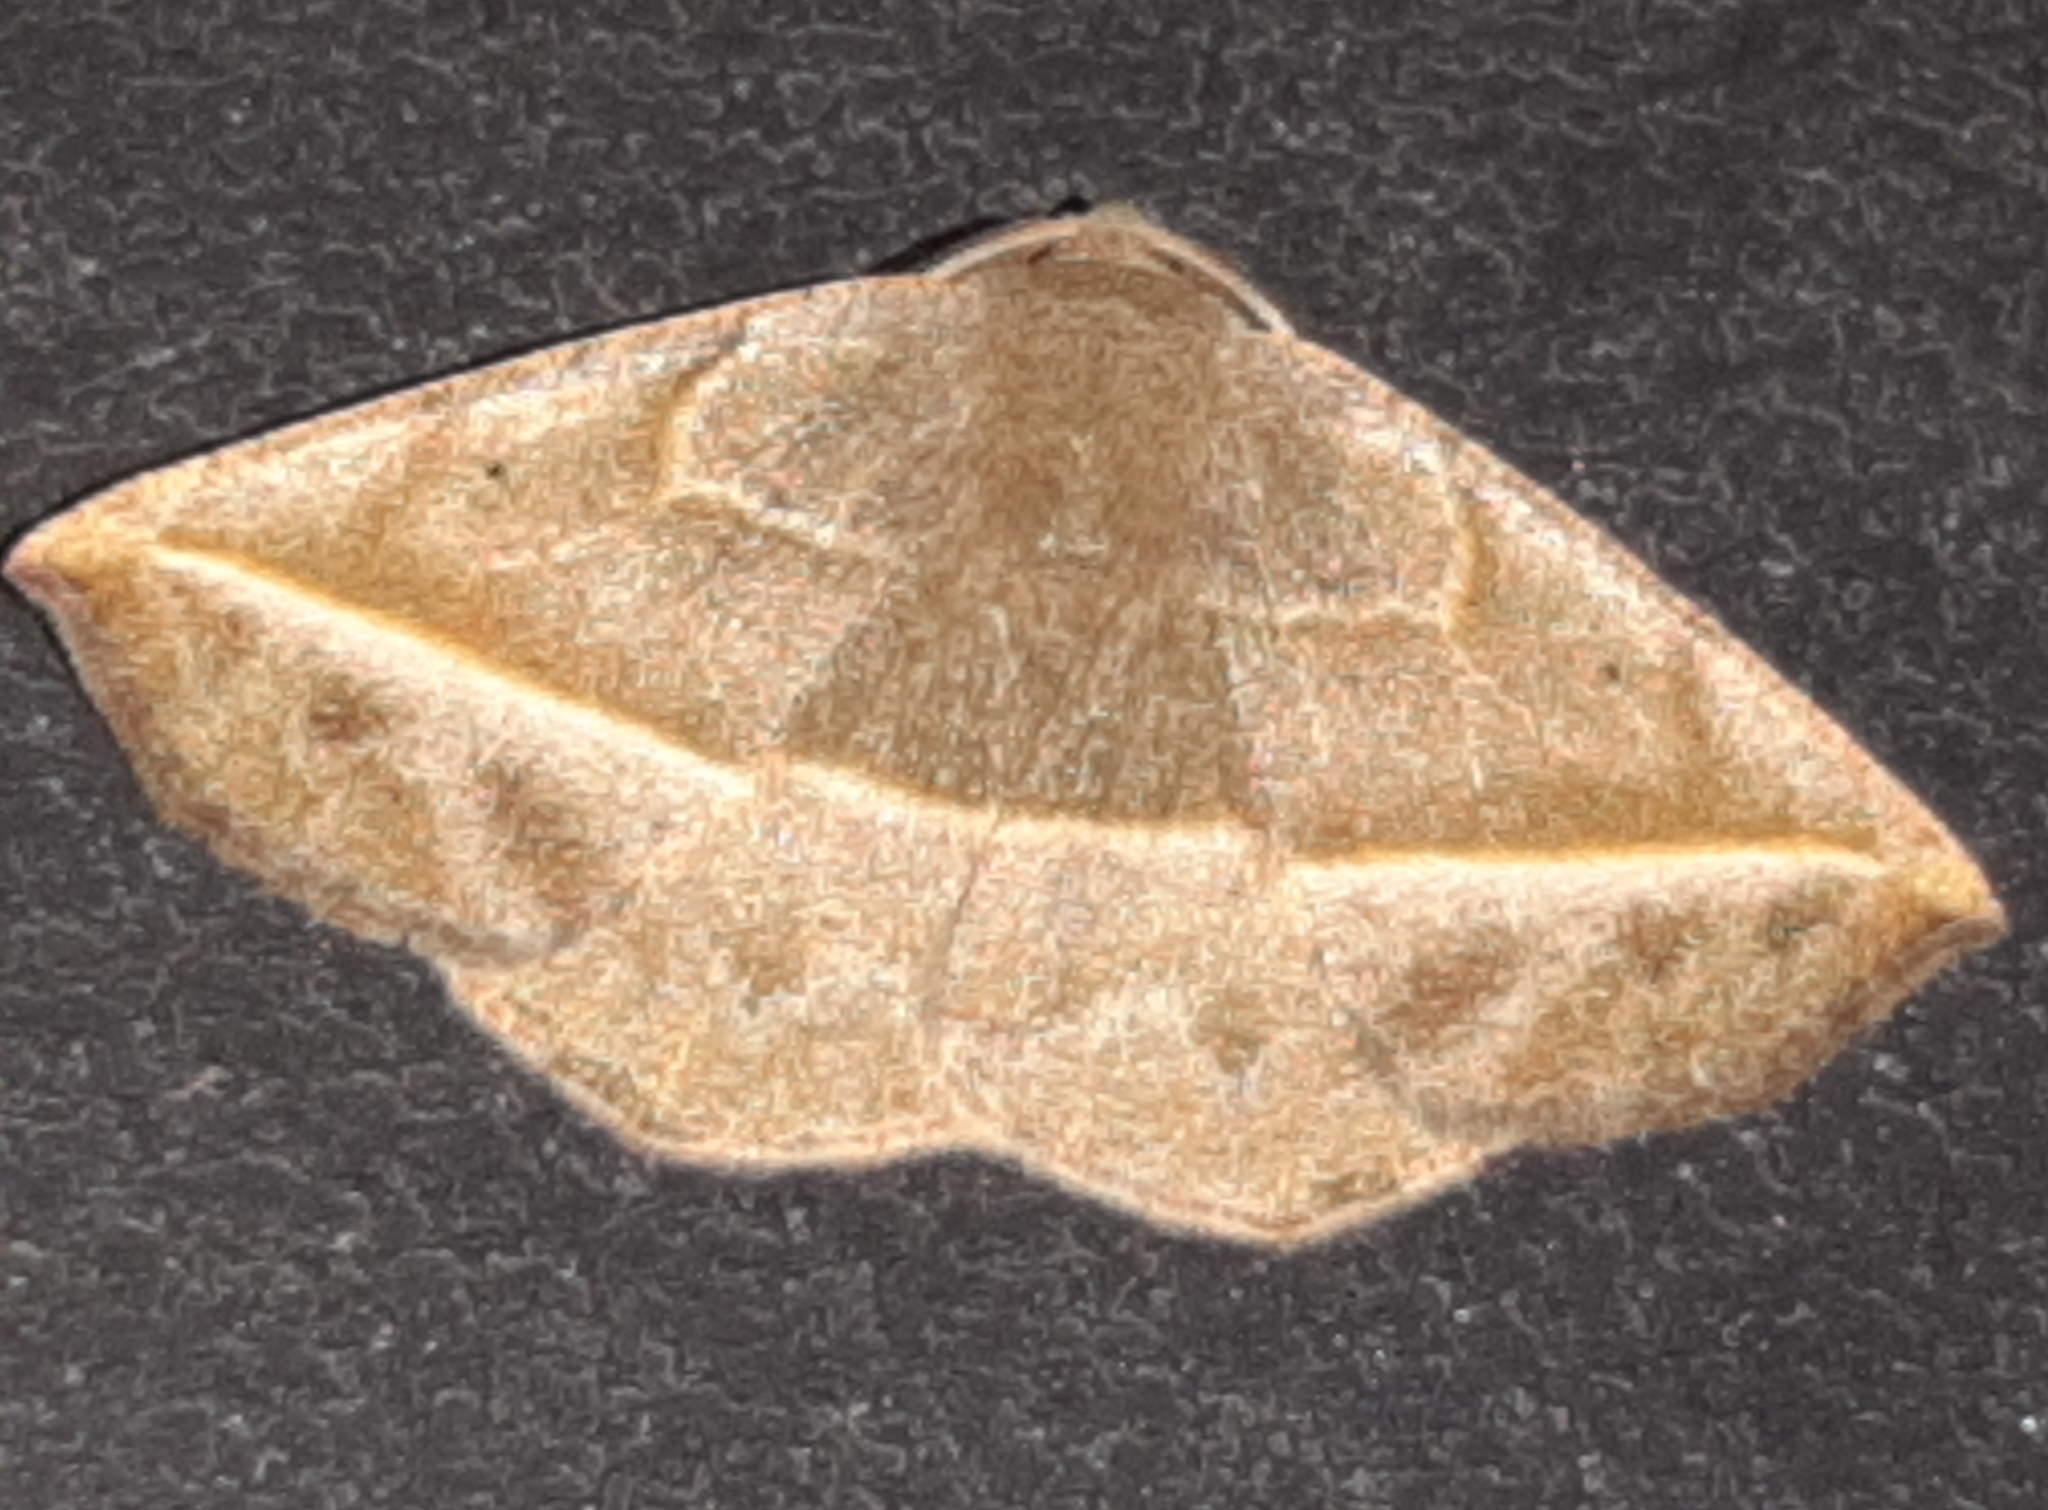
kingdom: Animalia
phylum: Arthropoda
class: Insecta
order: Lepidoptera
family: Geometridae
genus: Eusarca
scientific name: Eusarca crameraria
